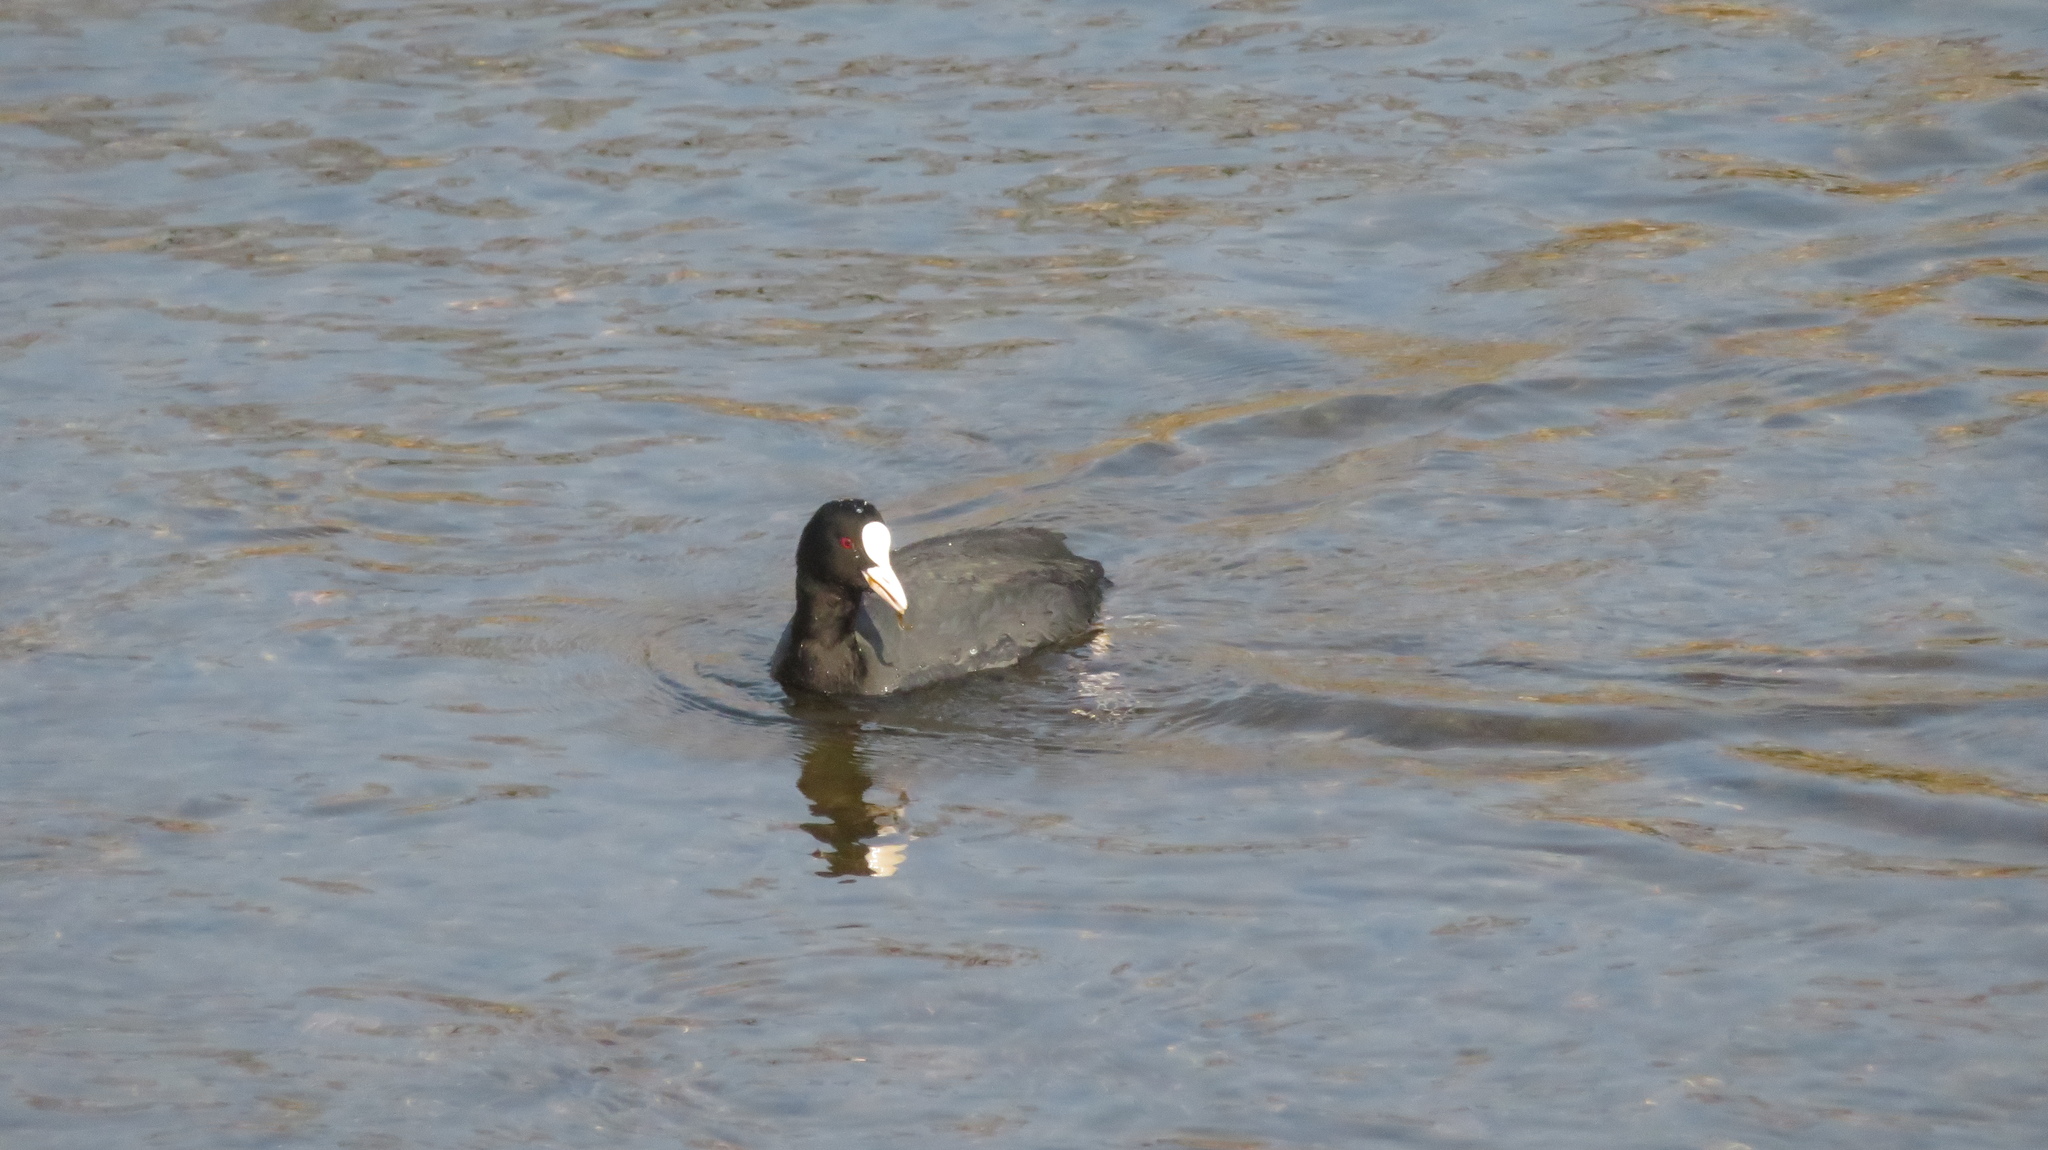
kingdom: Animalia
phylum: Chordata
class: Aves
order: Gruiformes
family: Rallidae
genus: Fulica
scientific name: Fulica atra
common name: Eurasian coot
